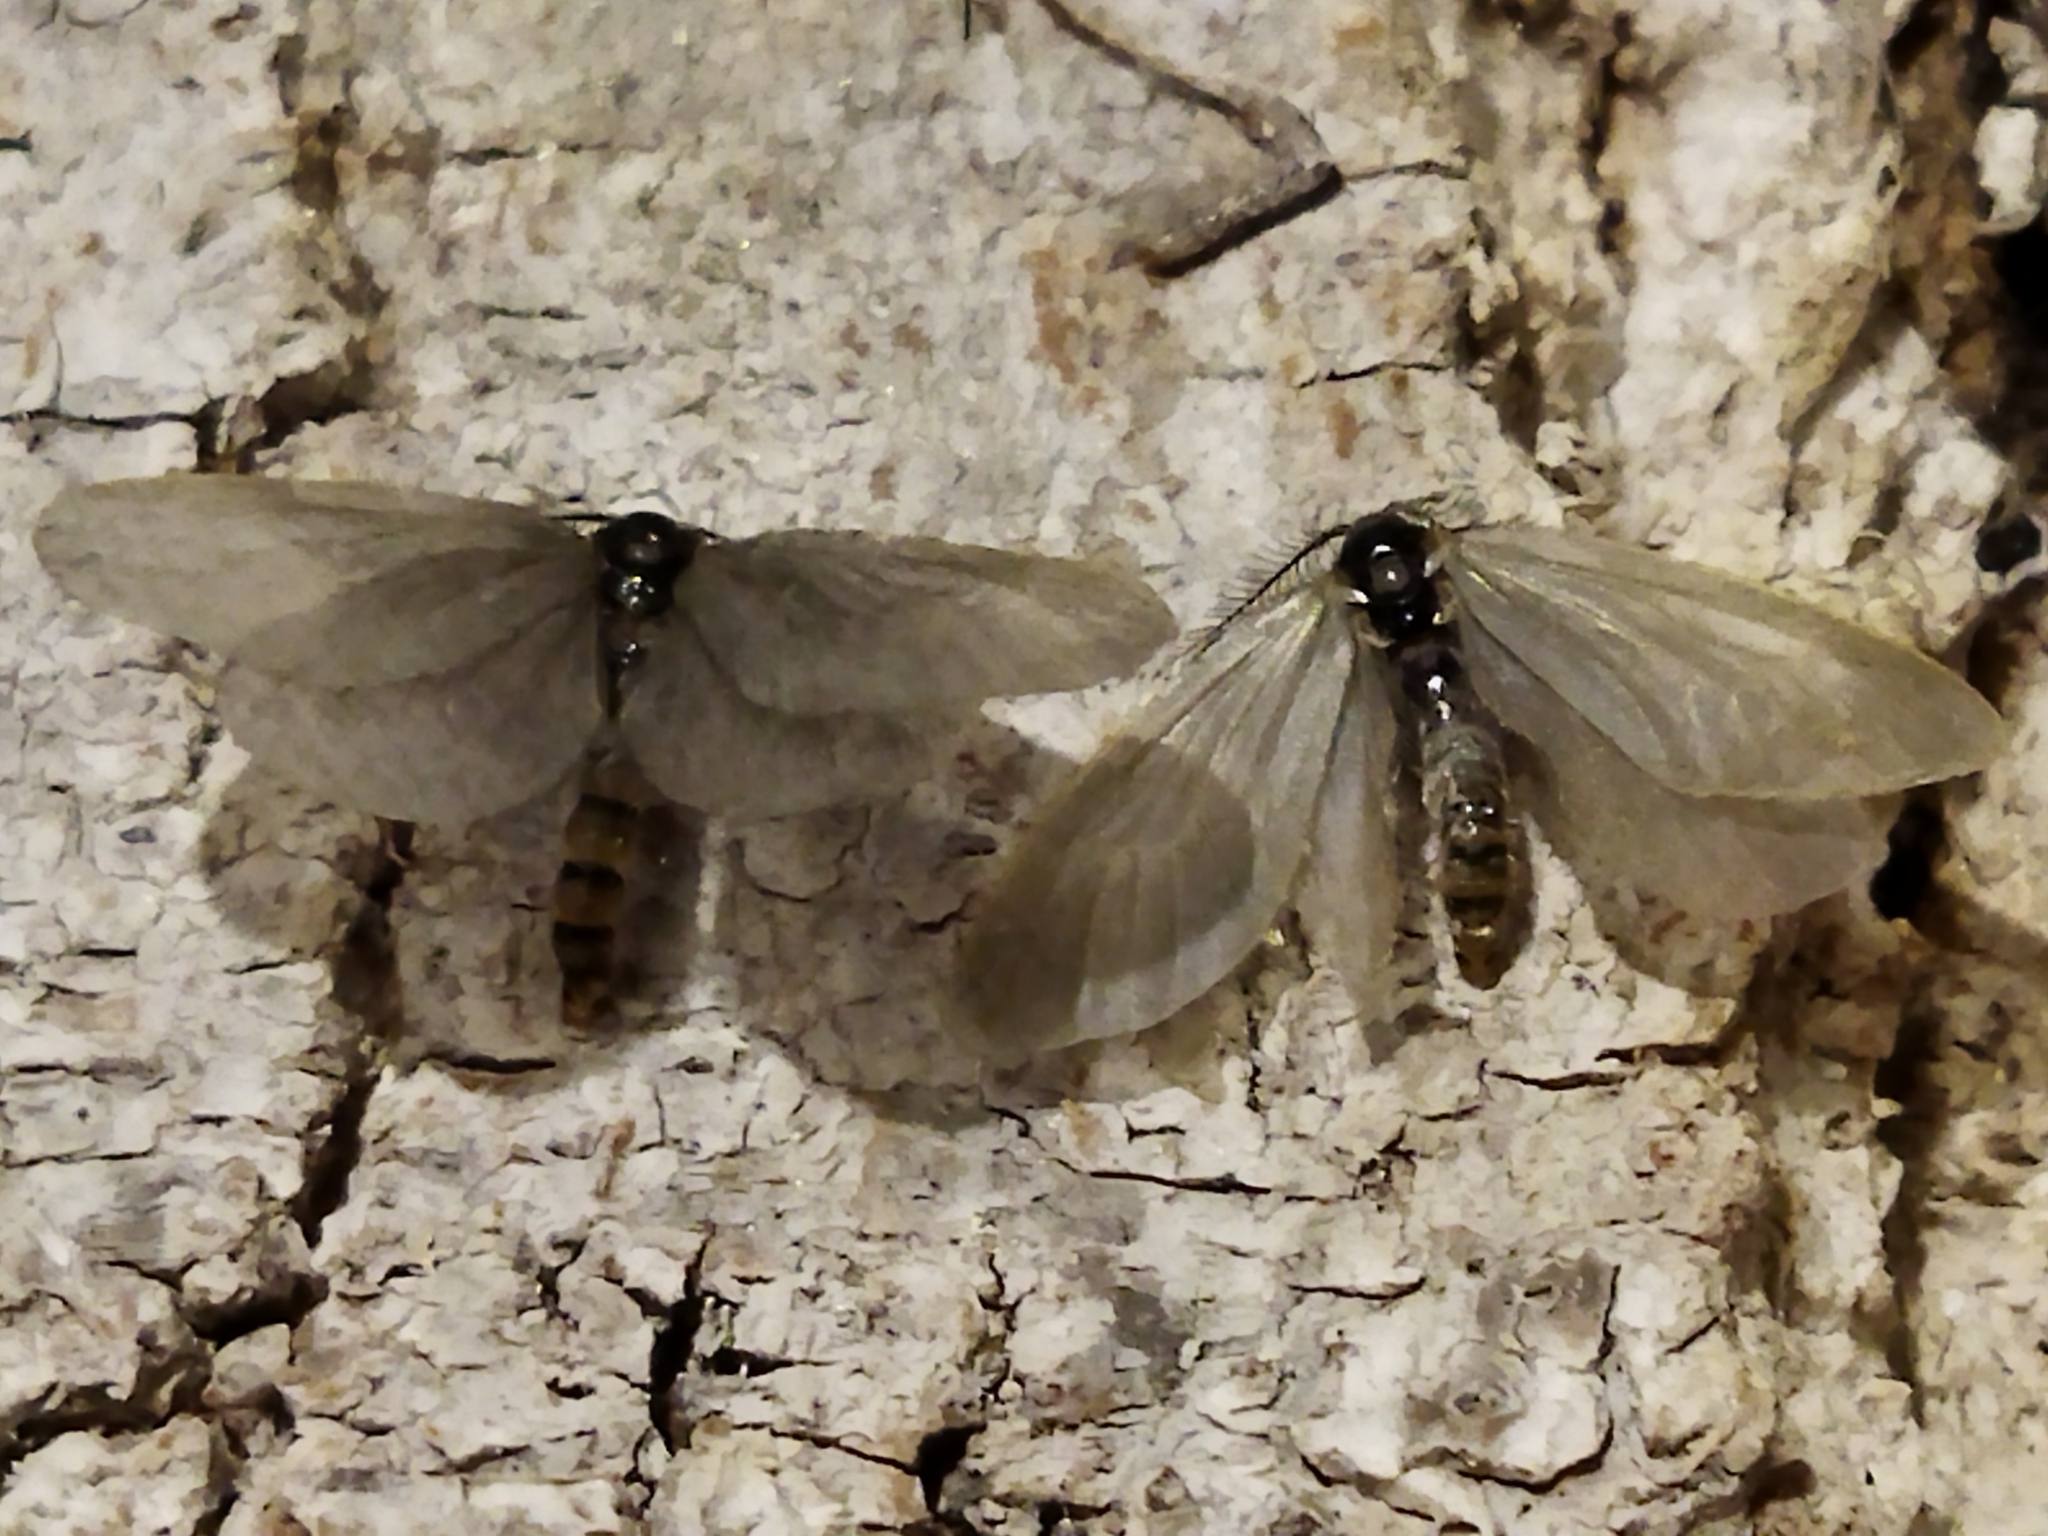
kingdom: Animalia
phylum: Arthropoda
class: Insecta
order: Lepidoptera
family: Psychidae
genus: Rebelia
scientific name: Rebelia perlucidella
